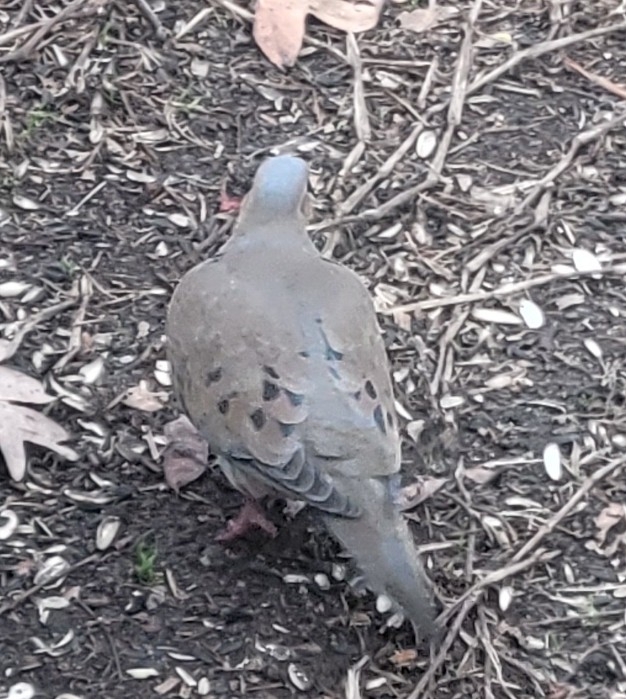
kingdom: Animalia
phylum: Chordata
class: Aves
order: Columbiformes
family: Columbidae
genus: Zenaida
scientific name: Zenaida macroura
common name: Mourning dove
